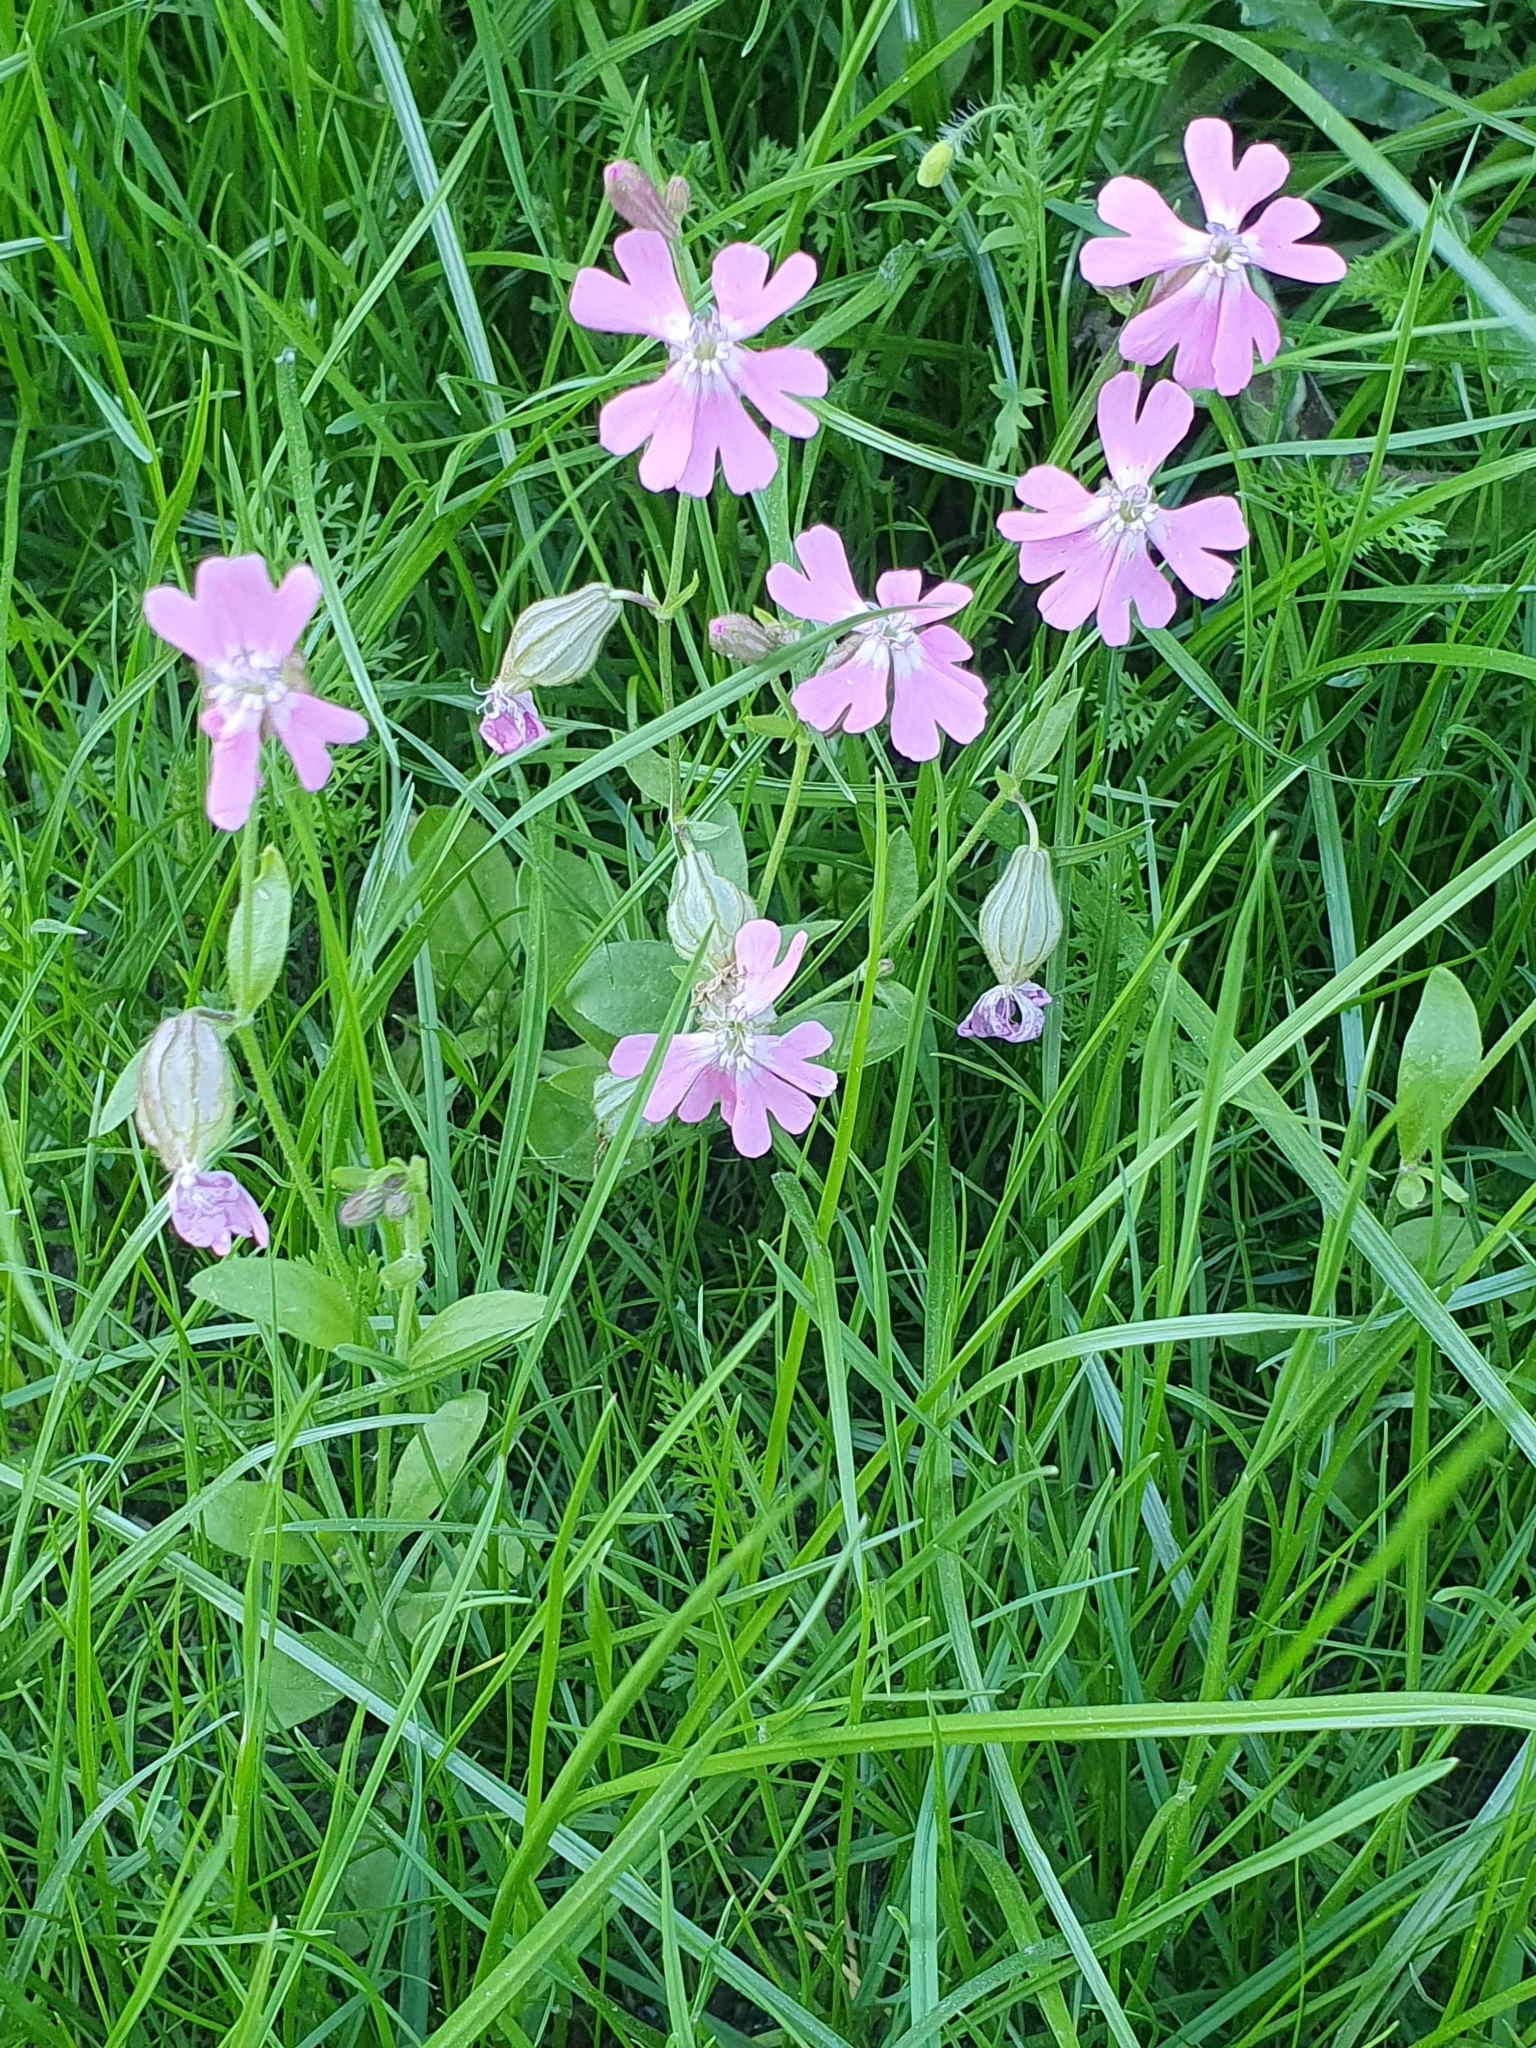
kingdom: Plantae
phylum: Tracheophyta
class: Magnoliopsida
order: Caryophyllales
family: Caryophyllaceae
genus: Silene
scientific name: Silene dioica
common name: Red campion
